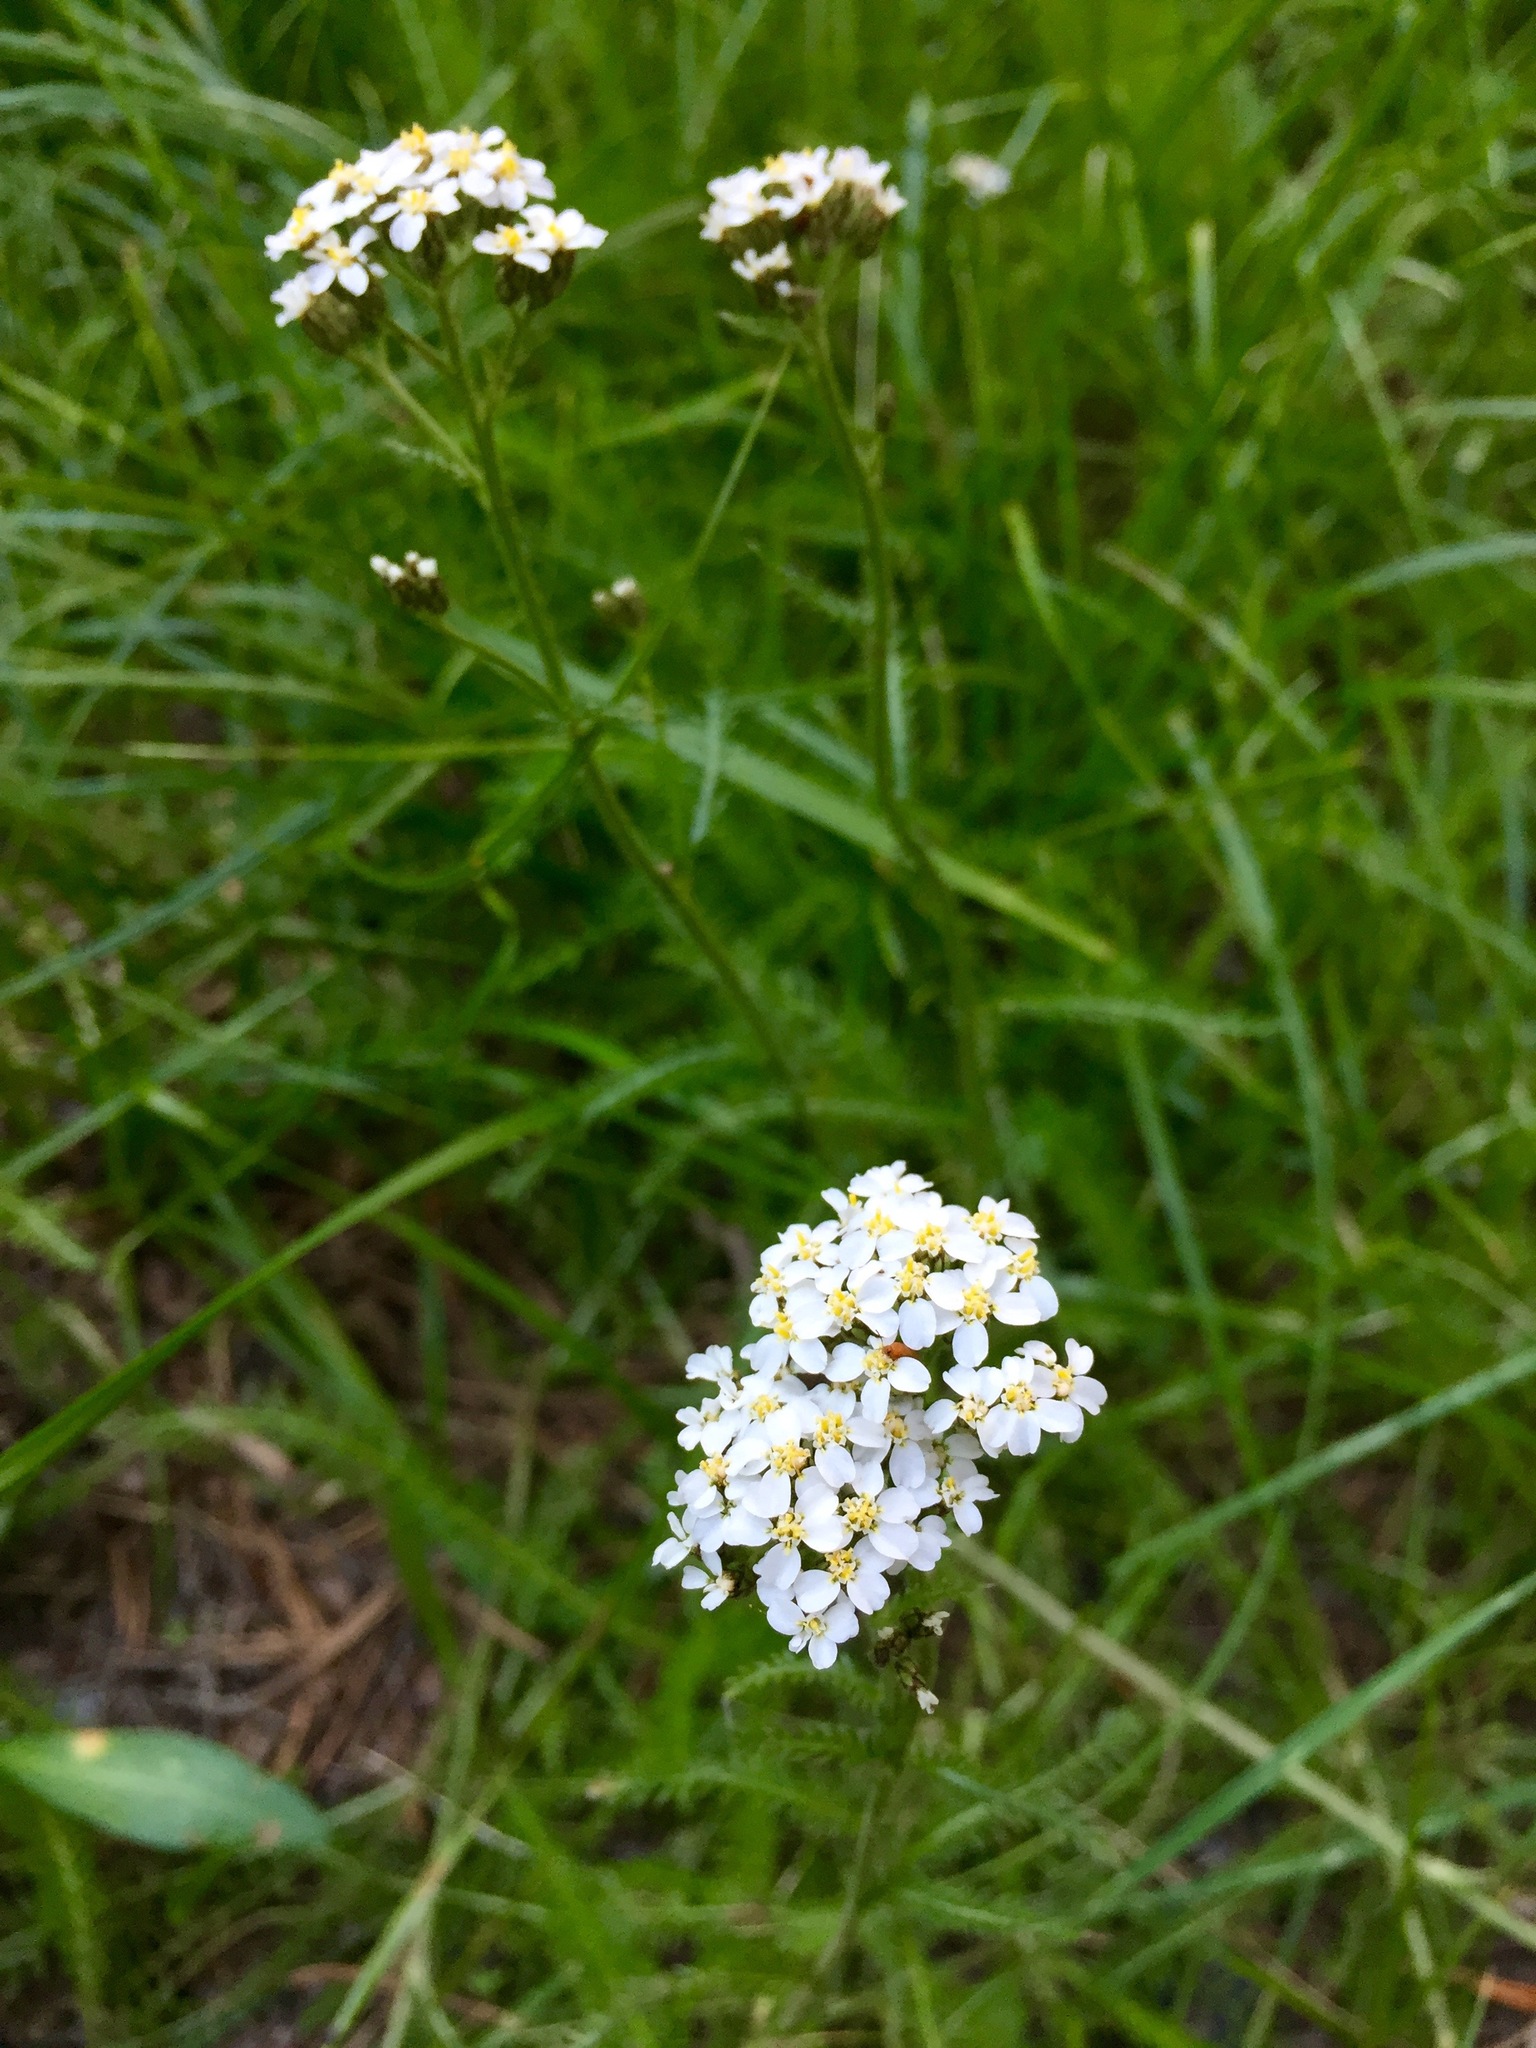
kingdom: Plantae
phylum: Tracheophyta
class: Magnoliopsida
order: Asterales
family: Asteraceae
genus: Achillea
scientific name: Achillea millefolium
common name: Yarrow
